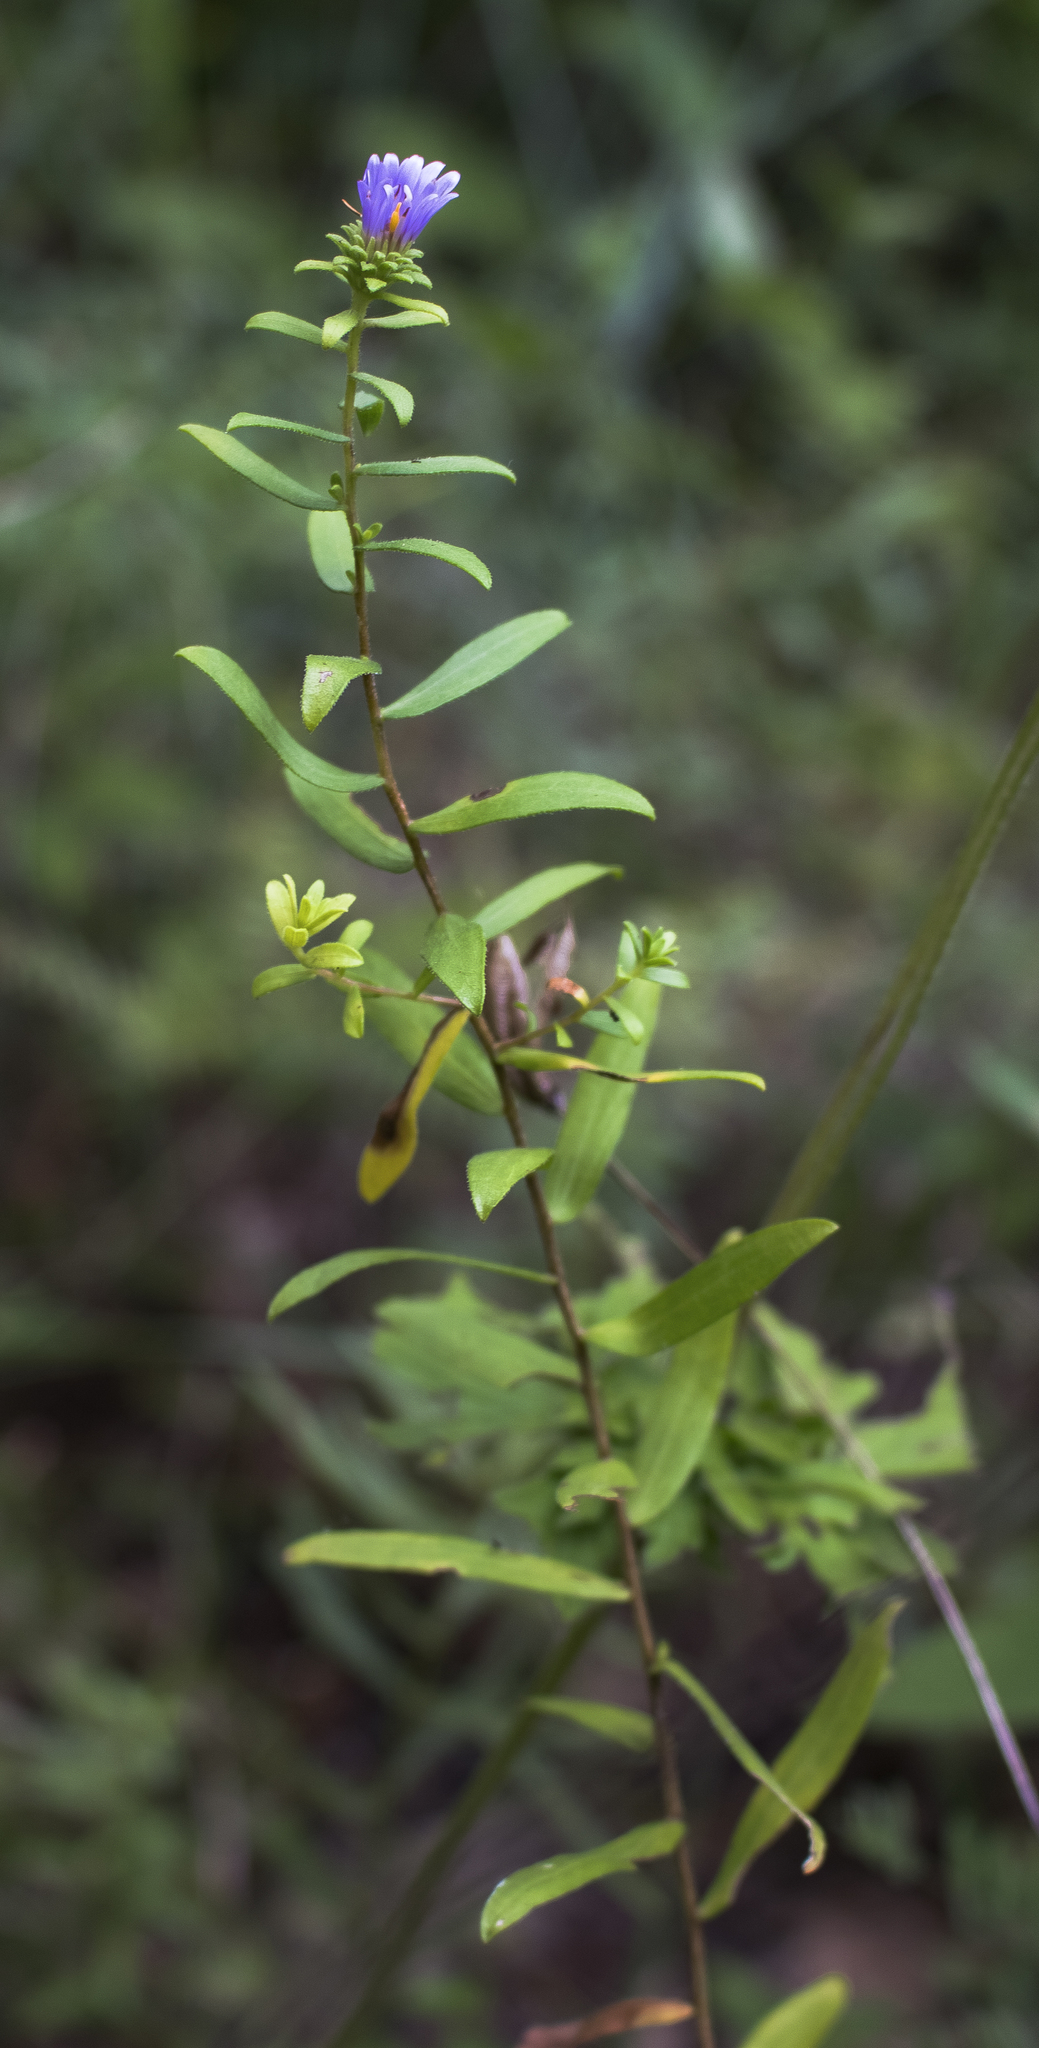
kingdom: Plantae
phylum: Tracheophyta
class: Magnoliopsida
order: Asterales
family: Asteraceae
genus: Symphyotrichum
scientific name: Symphyotrichum oblongifolium
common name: Aromatic aster
